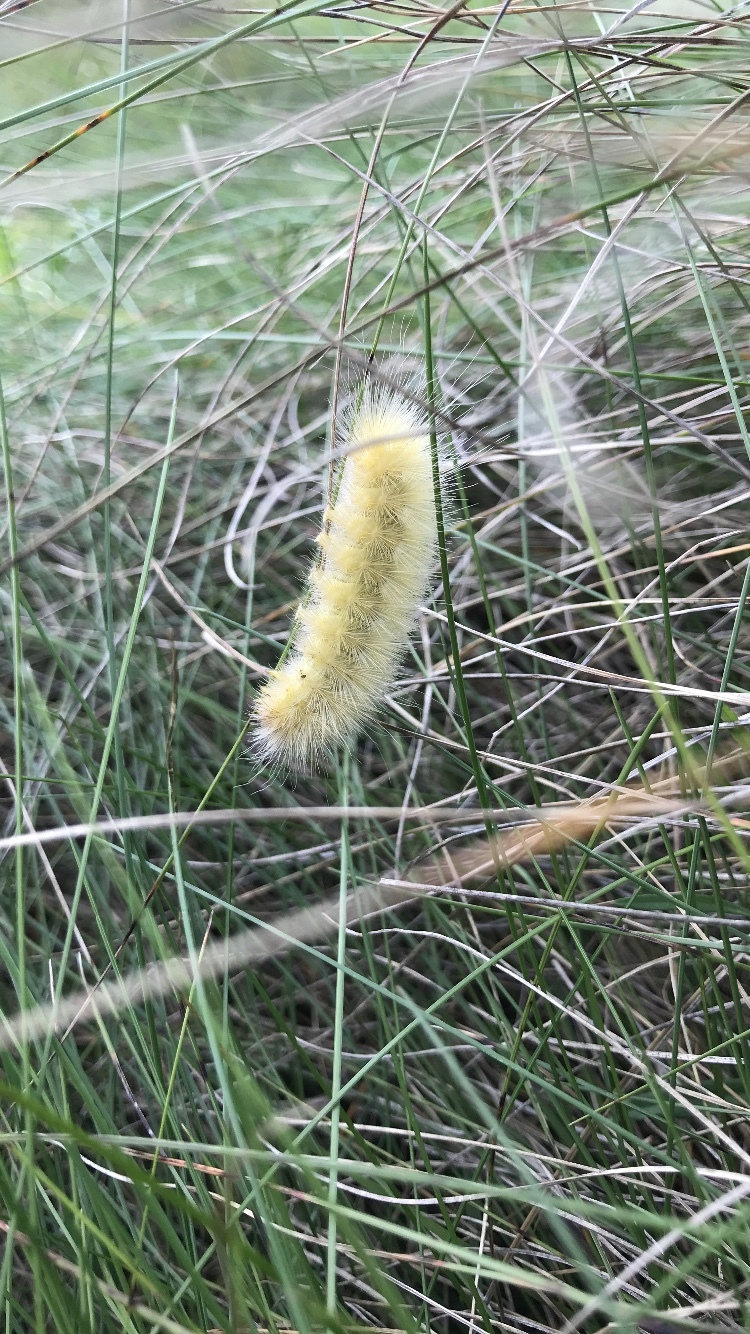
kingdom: Animalia
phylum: Arthropoda
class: Insecta
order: Lepidoptera
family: Erebidae
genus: Spilosoma
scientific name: Spilosoma virginica
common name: Virginia tiger moth
